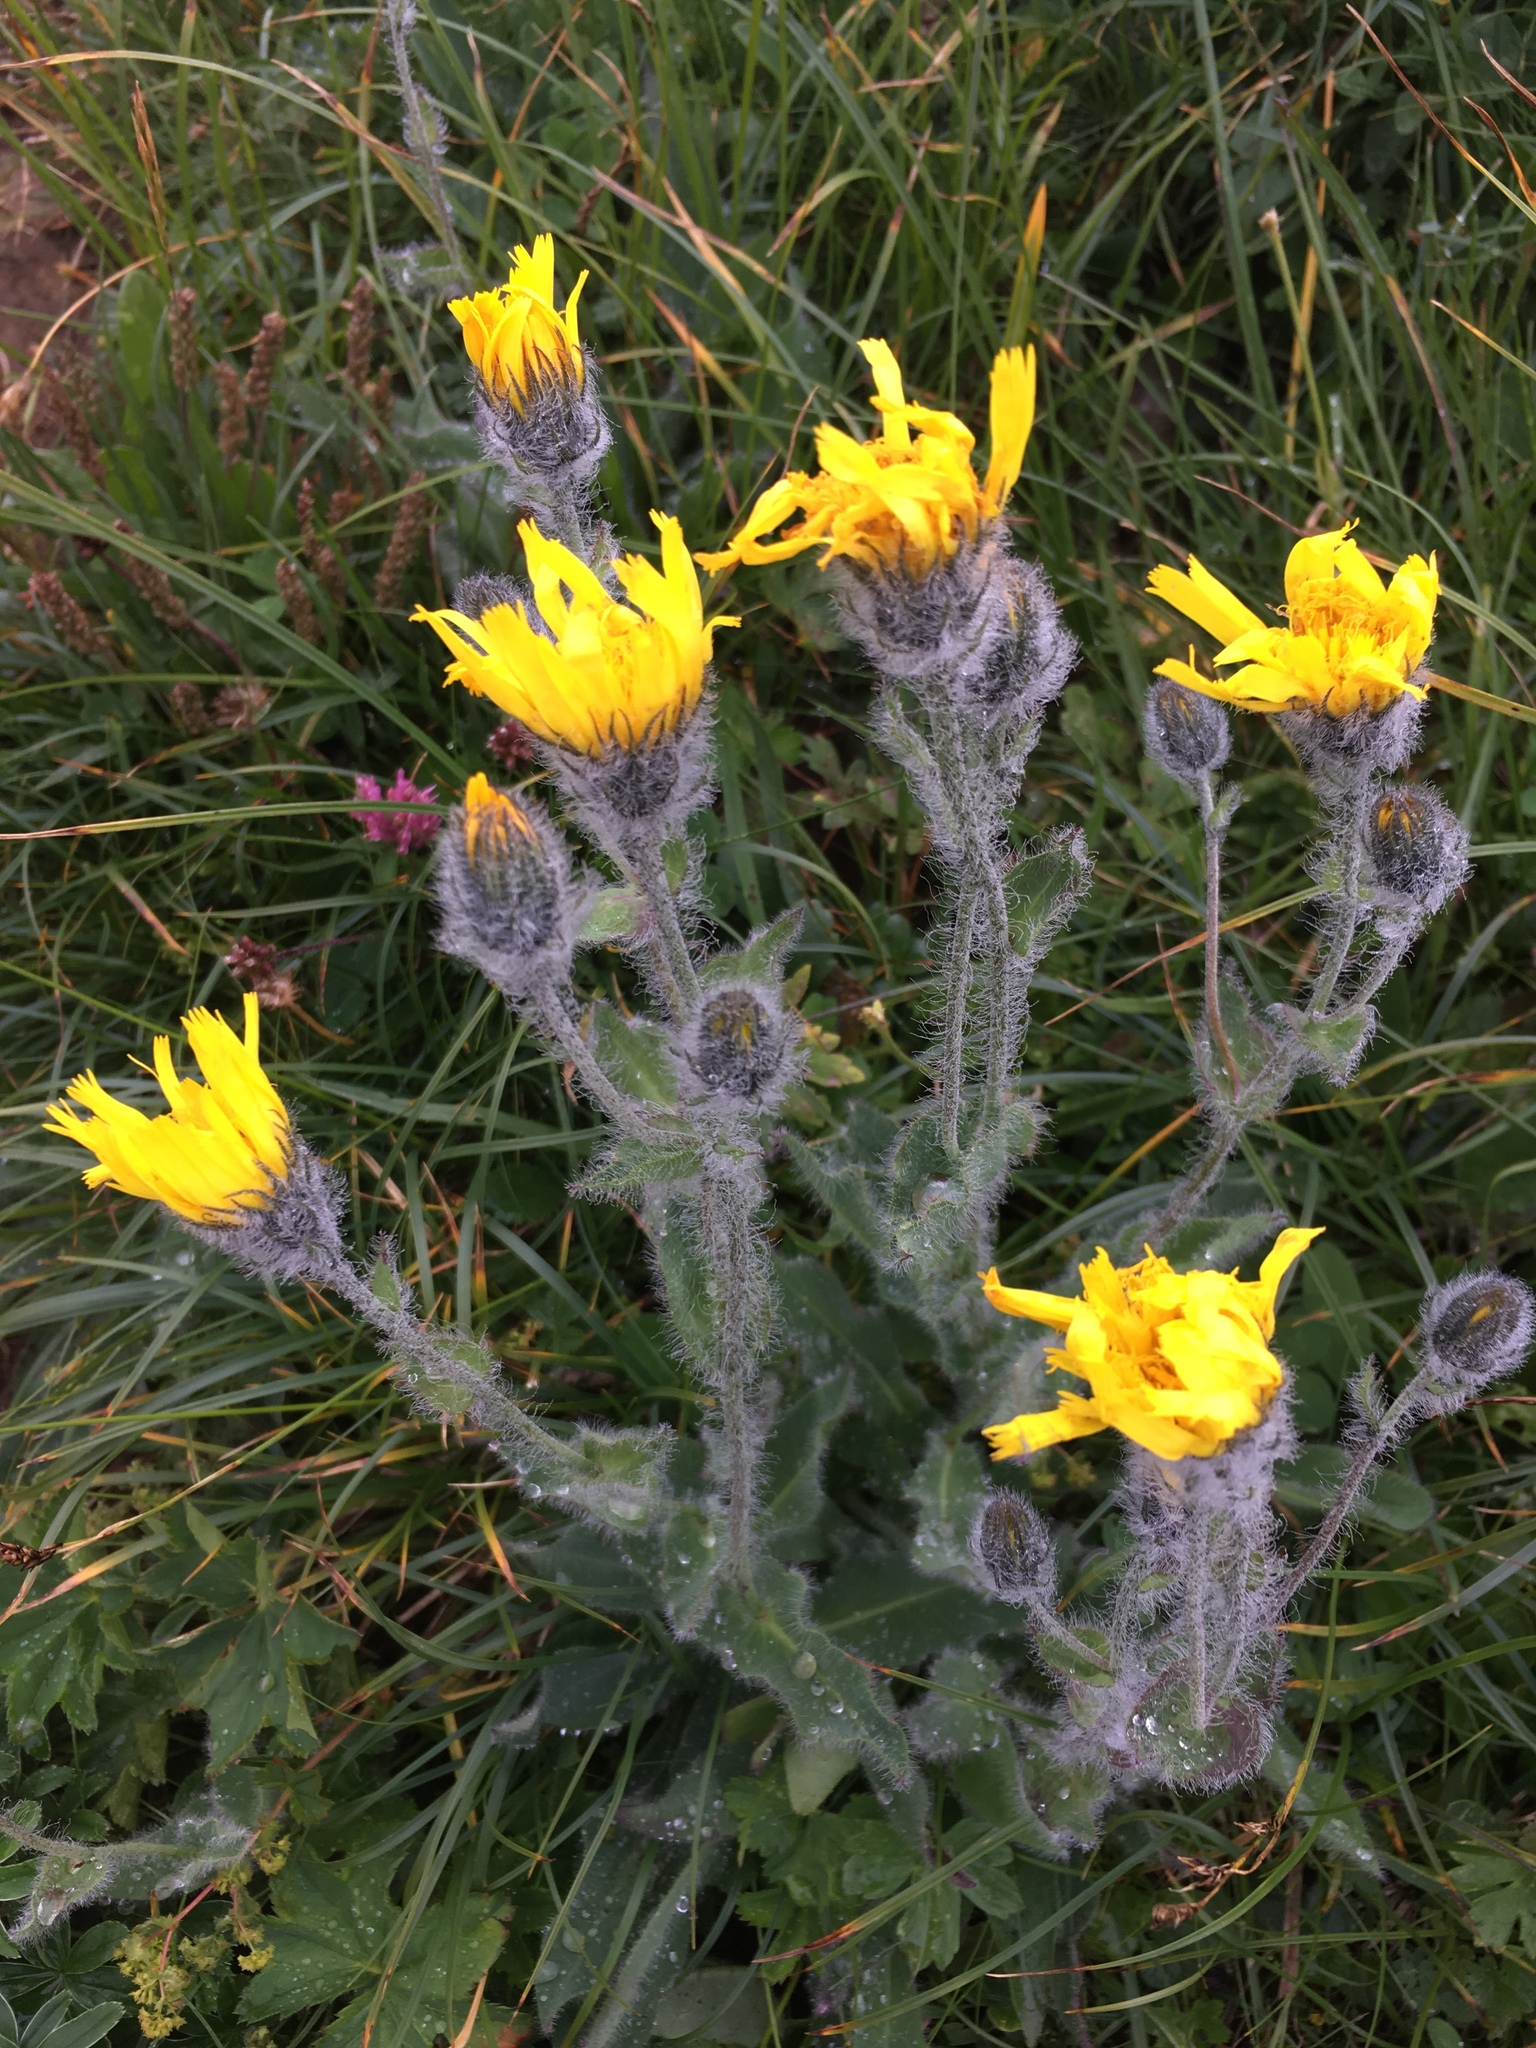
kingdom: Plantae
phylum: Tracheophyta
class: Magnoliopsida
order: Asterales
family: Asteraceae
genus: Hieracium
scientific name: Hieracium villosum
